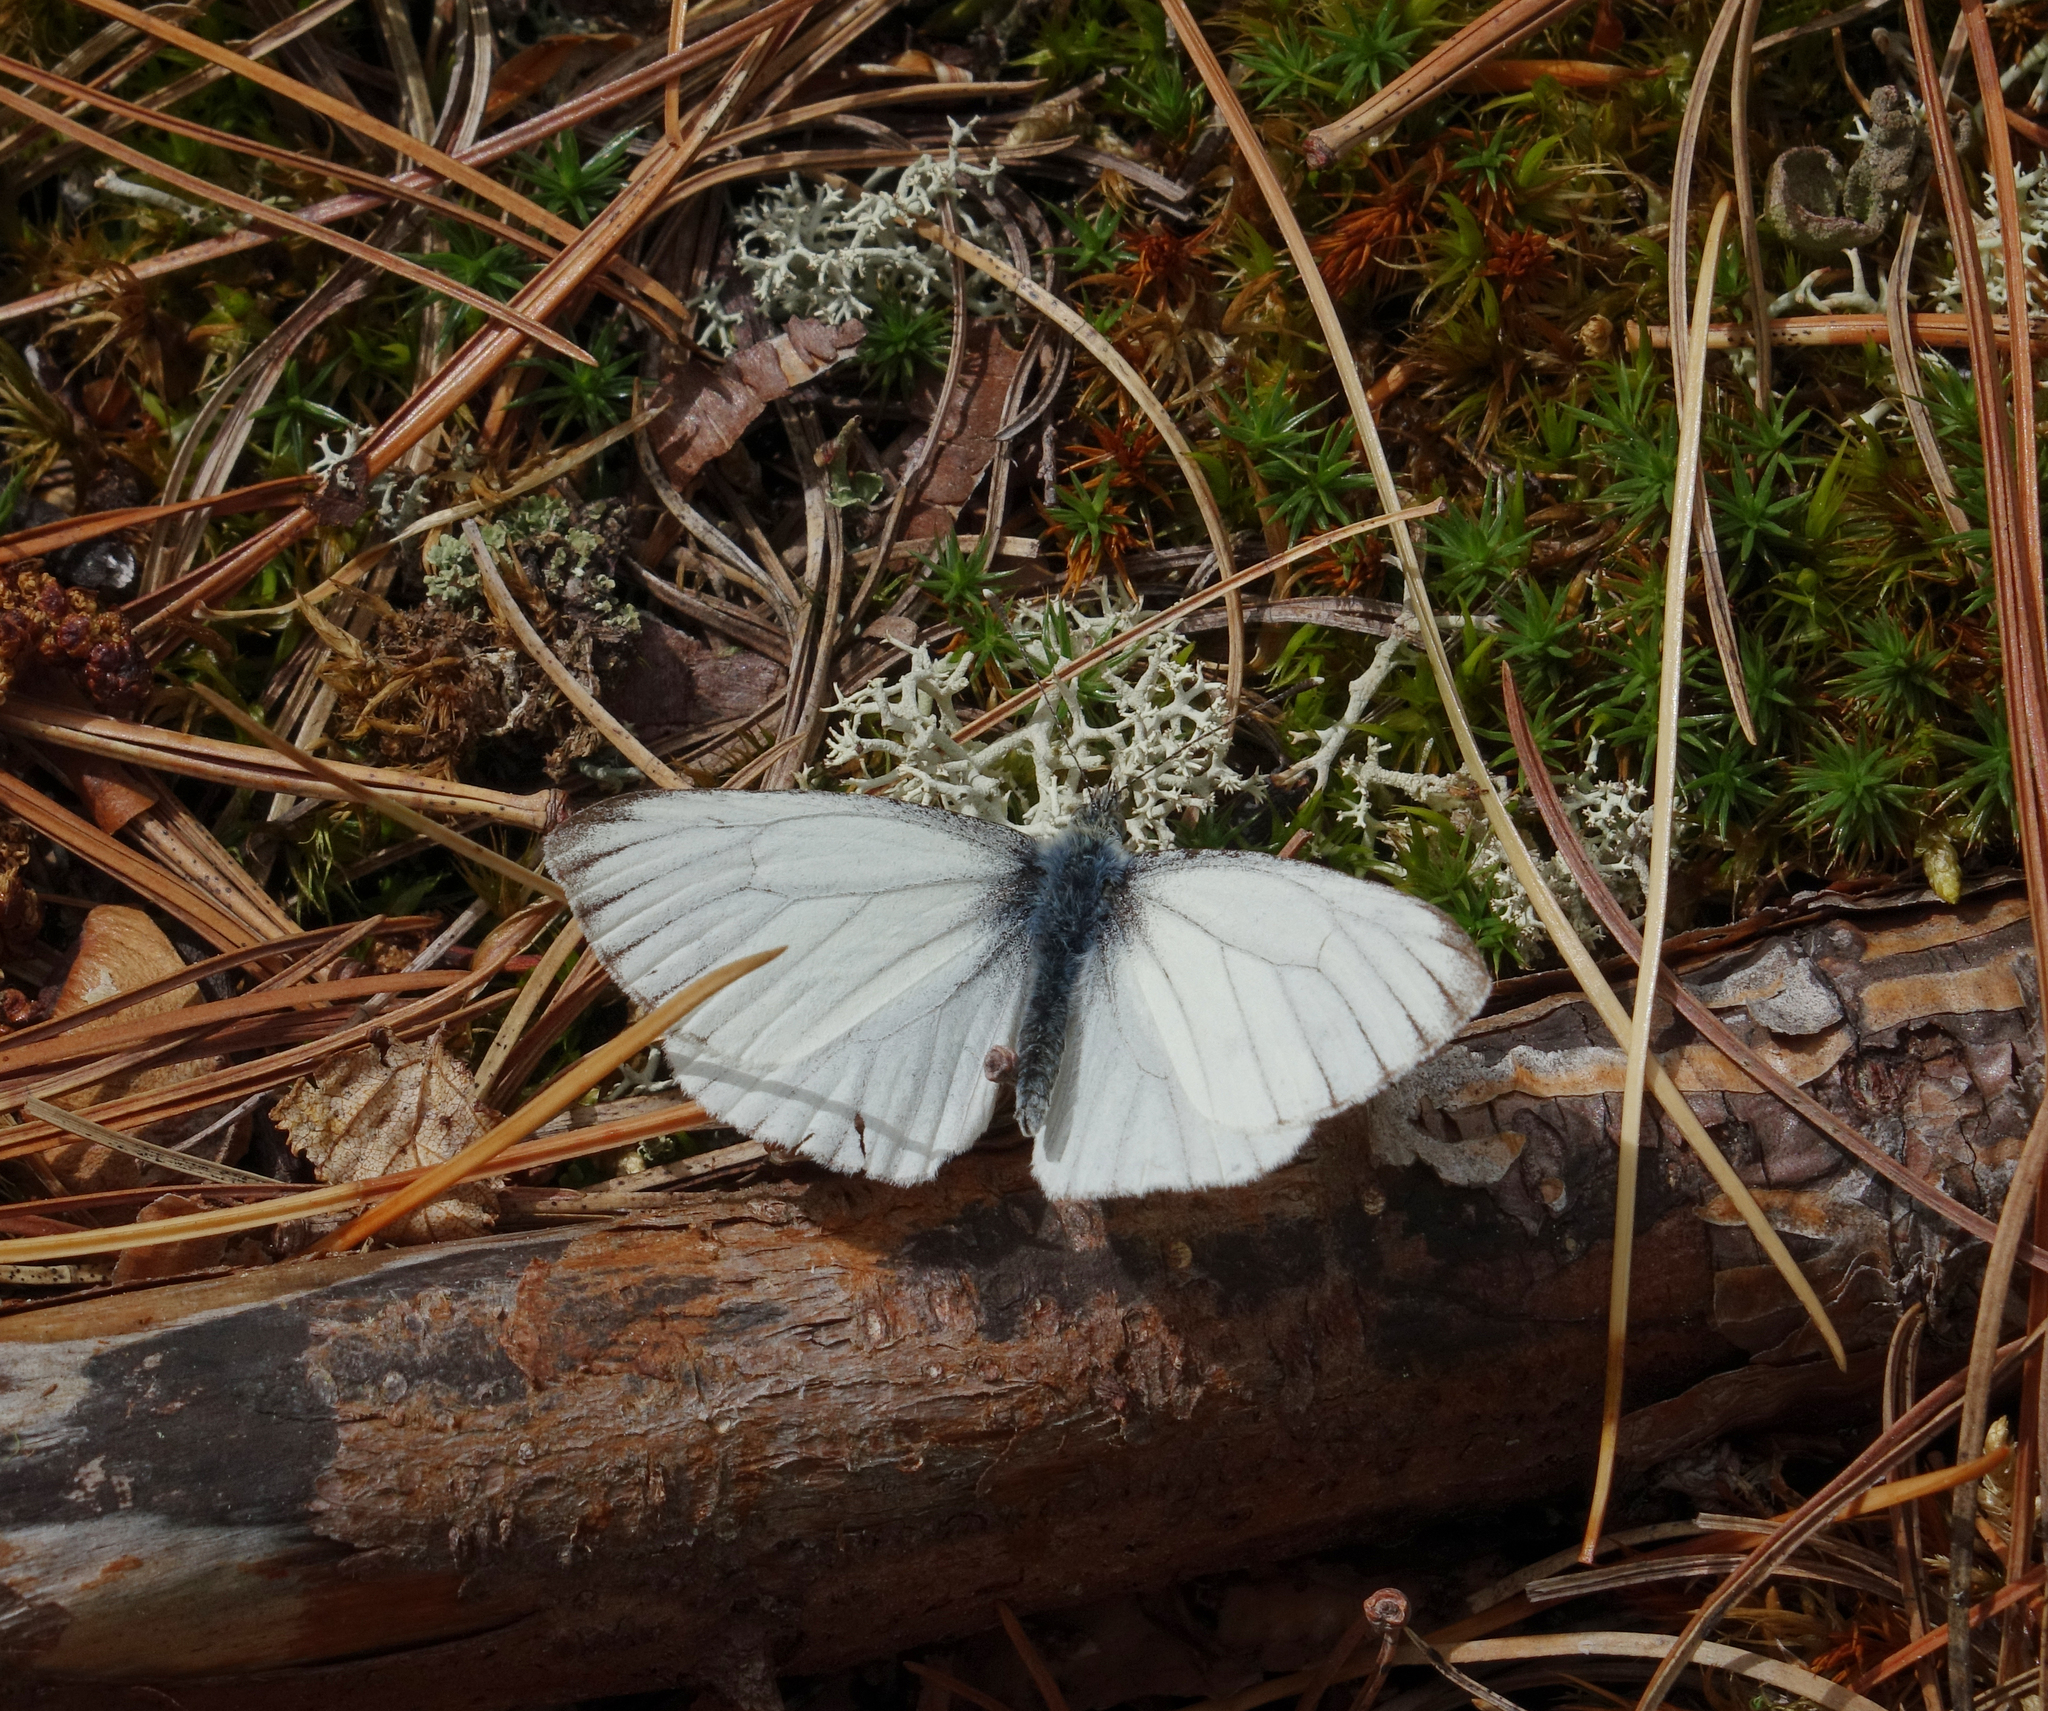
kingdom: Animalia
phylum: Arthropoda
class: Insecta
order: Lepidoptera
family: Pieridae
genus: Pieris
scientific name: Pieris napi
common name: Green-veined white
